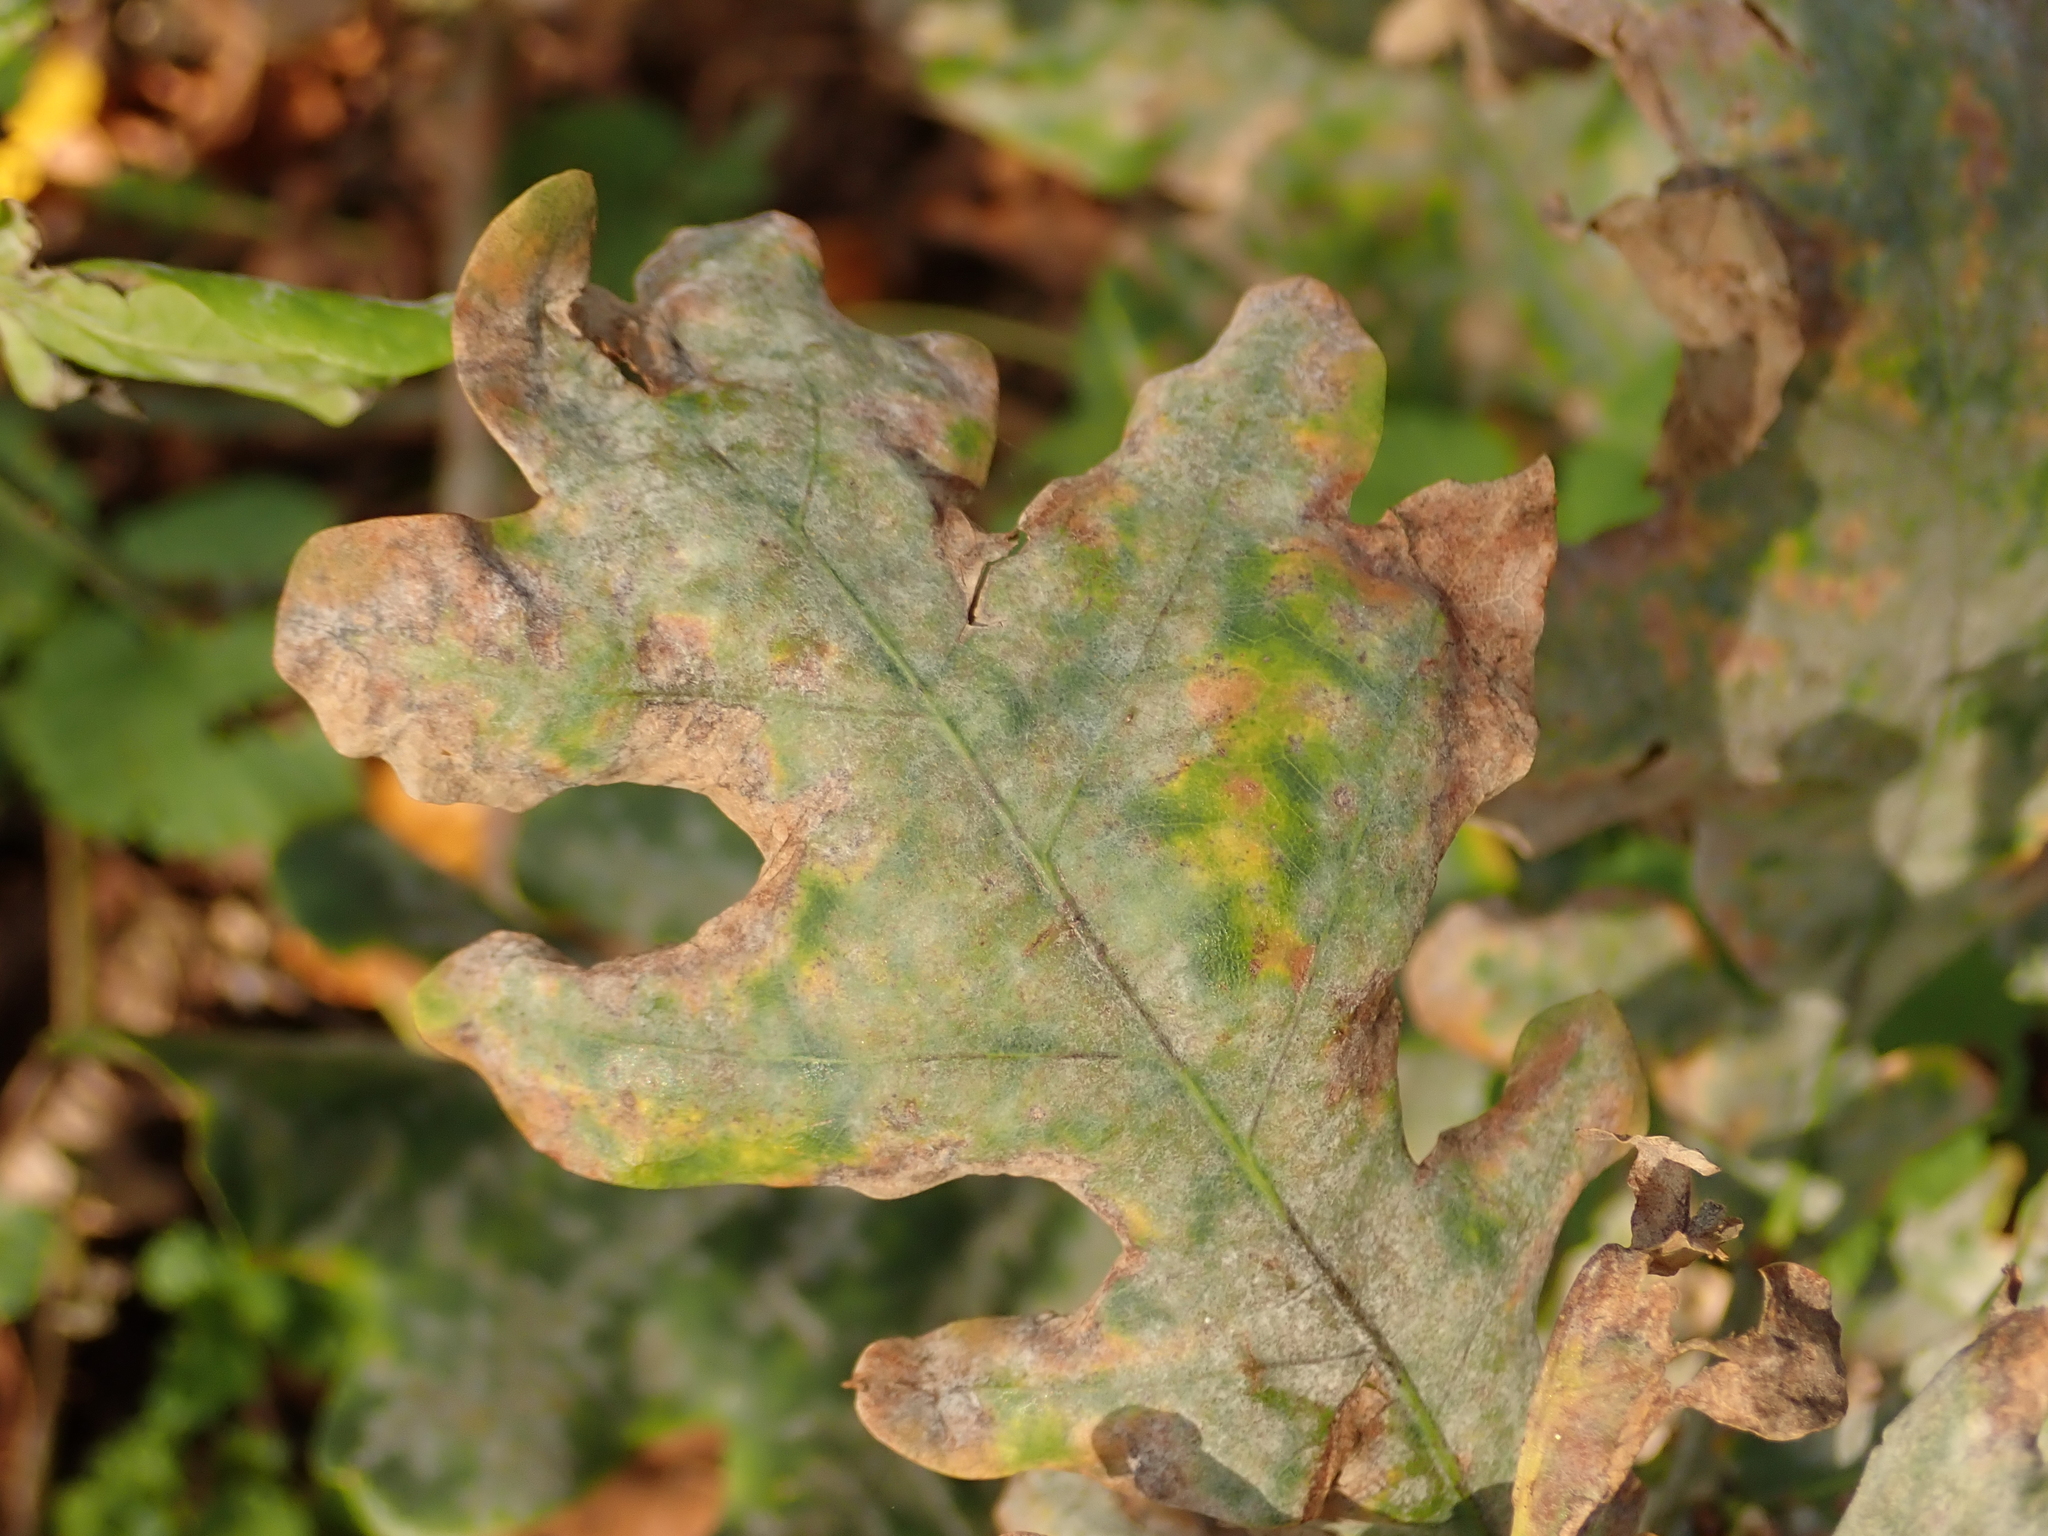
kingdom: Fungi
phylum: Ascomycota
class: Leotiomycetes
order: Helotiales
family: Erysiphaceae
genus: Erysiphe
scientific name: Erysiphe
